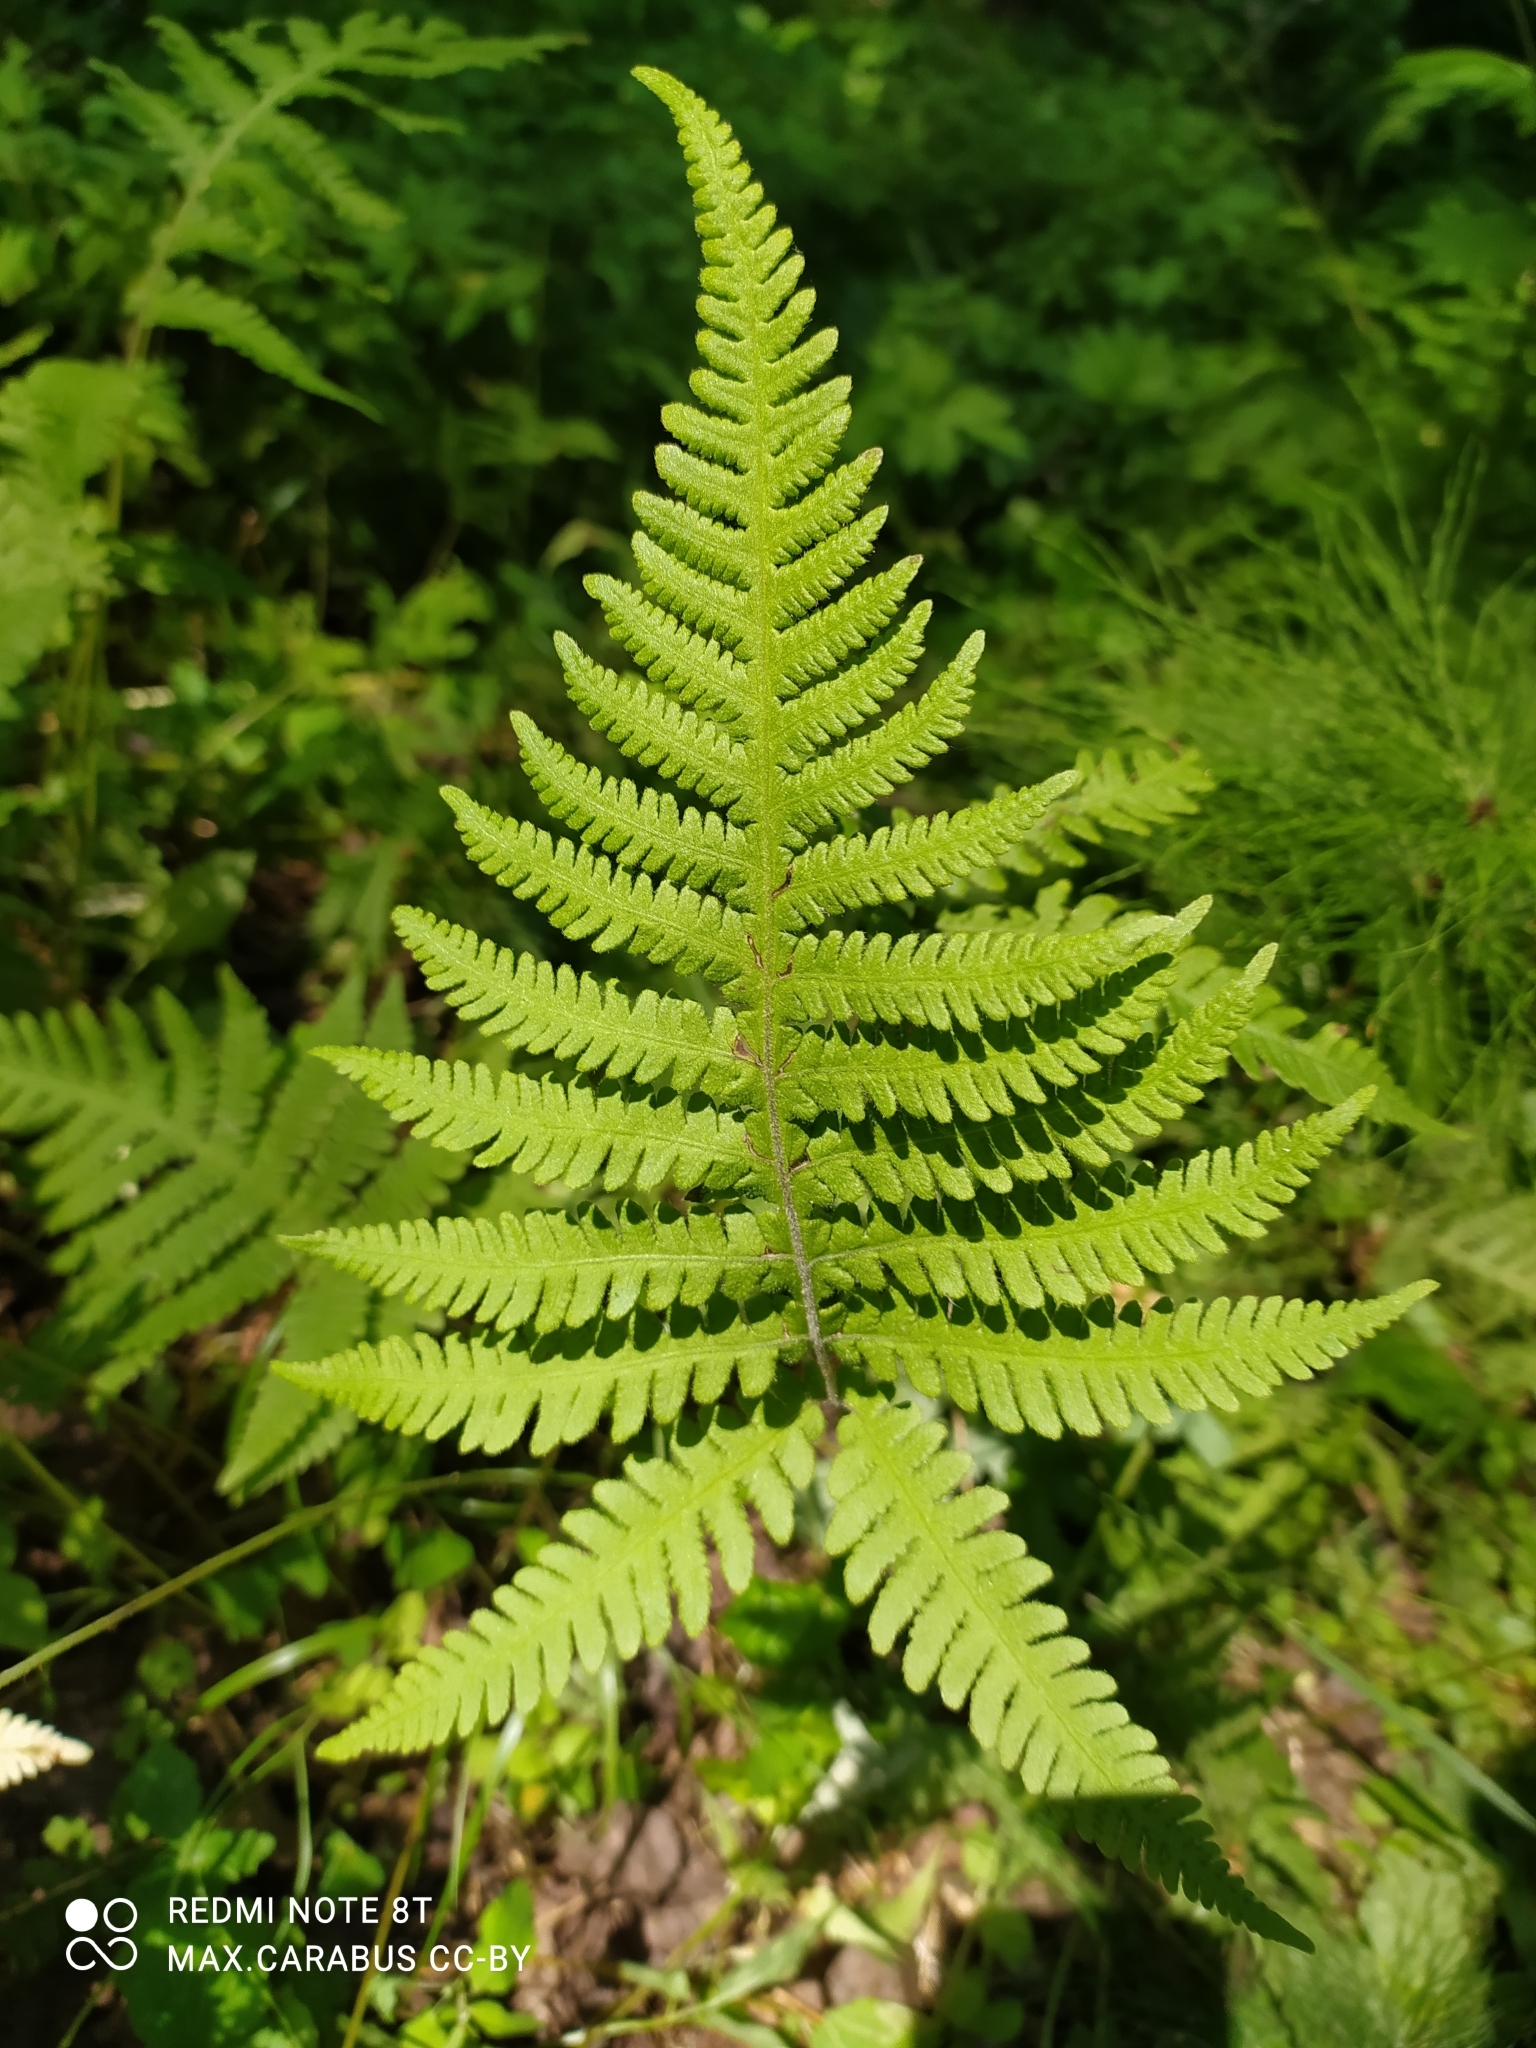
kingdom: Plantae
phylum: Tracheophyta
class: Polypodiopsida
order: Polypodiales
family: Thelypteridaceae
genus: Phegopteris
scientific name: Phegopteris connectilis
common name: Beech fern
